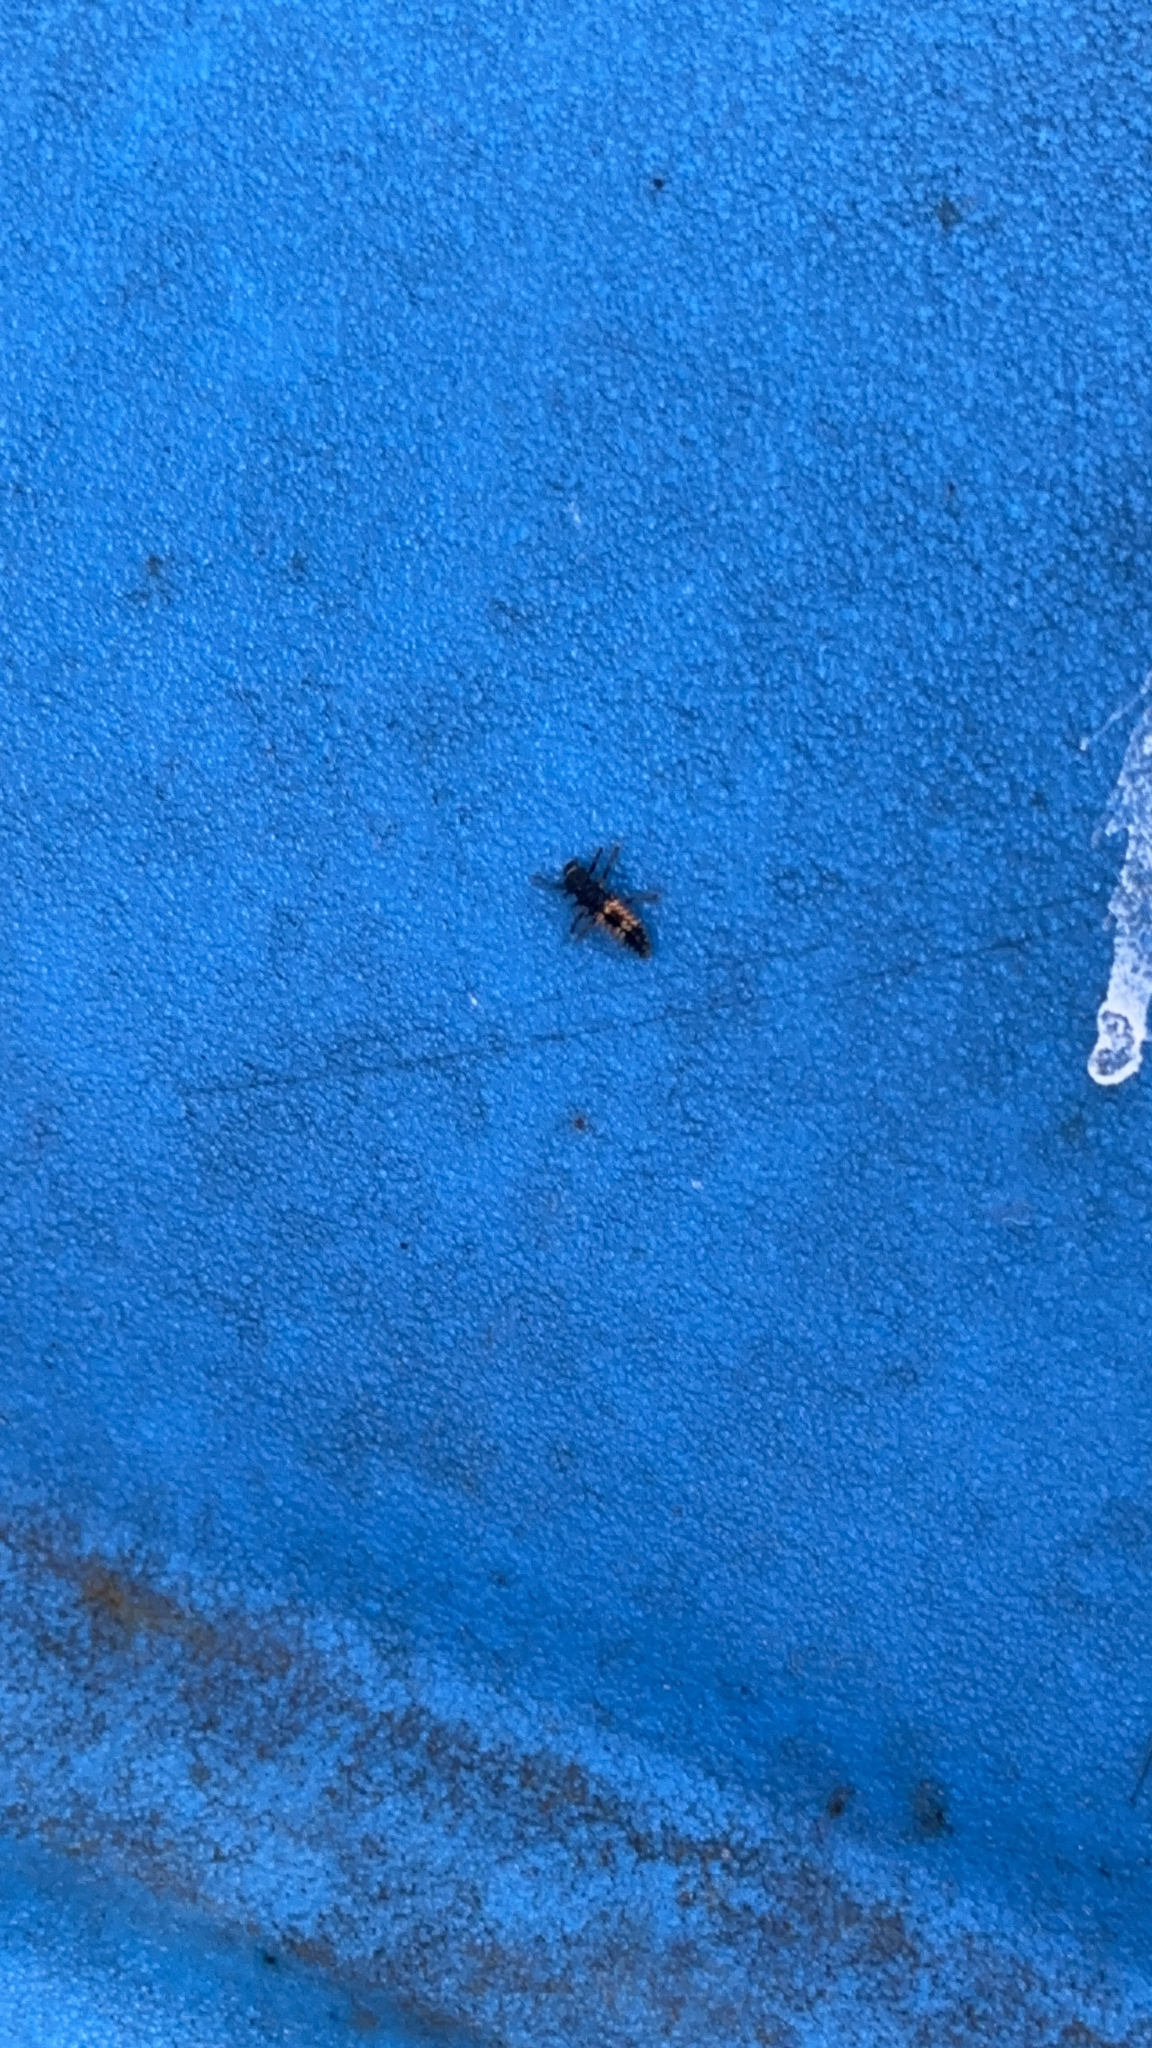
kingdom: Animalia
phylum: Arthropoda
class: Insecta
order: Coleoptera
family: Coccinellidae
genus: Harmonia
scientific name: Harmonia axyridis
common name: Harlequin ladybird
